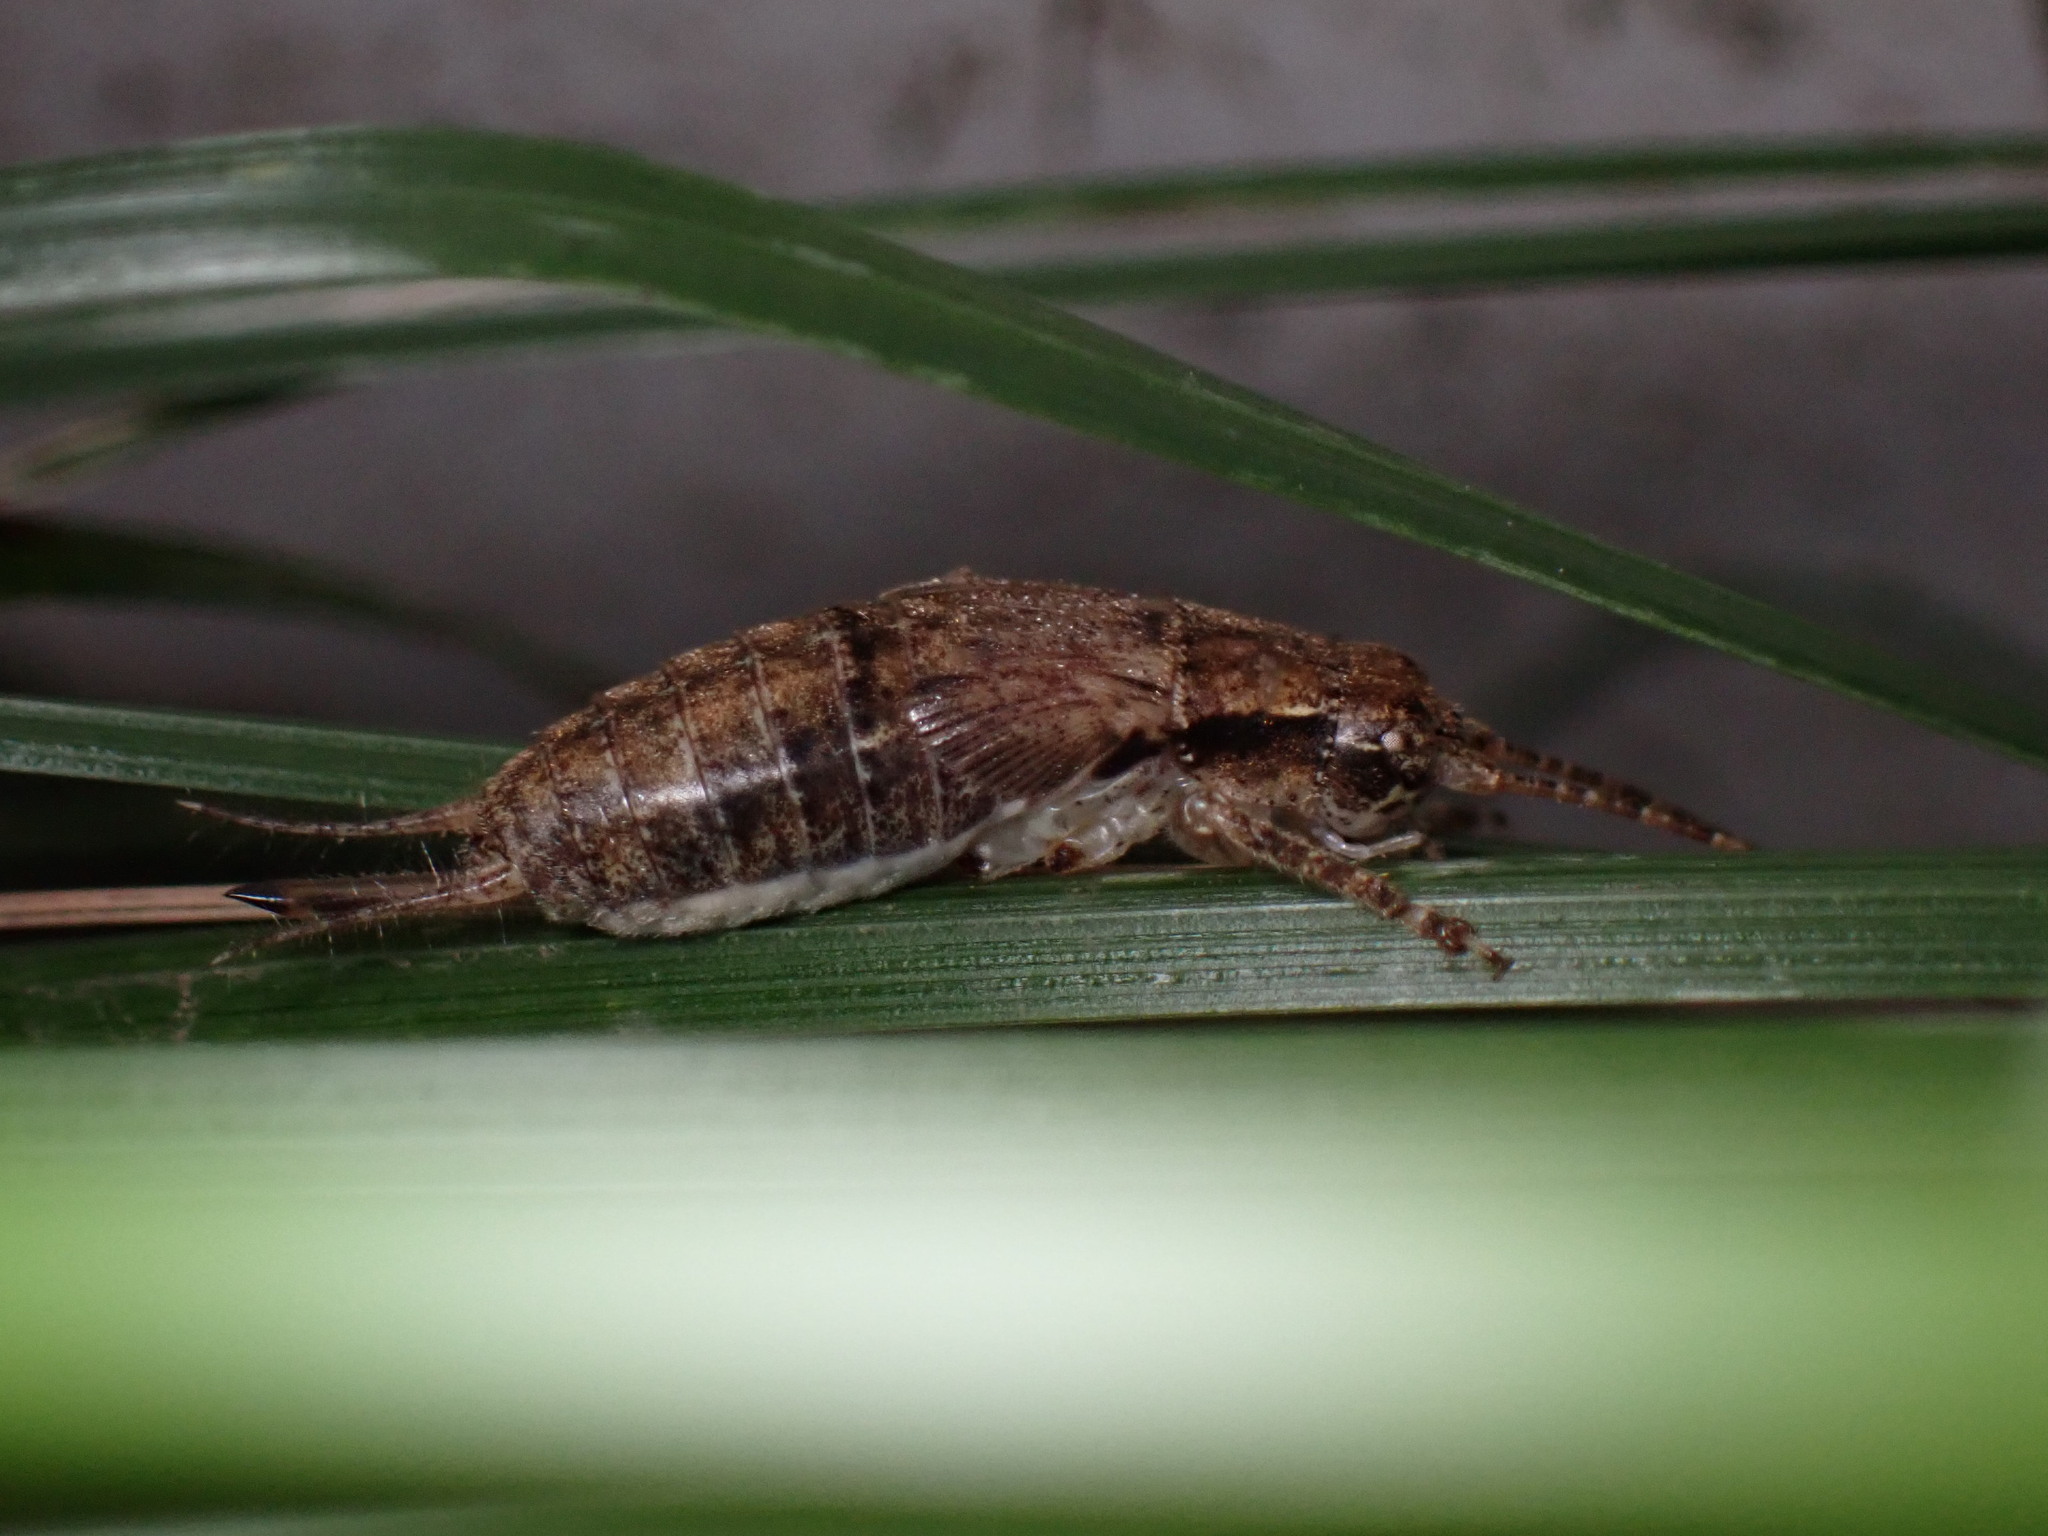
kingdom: Animalia
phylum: Arthropoda
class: Insecta
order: Orthoptera
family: Gryllidae
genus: Hapithus
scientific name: Hapithus saltator
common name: Jumping bush cricket
